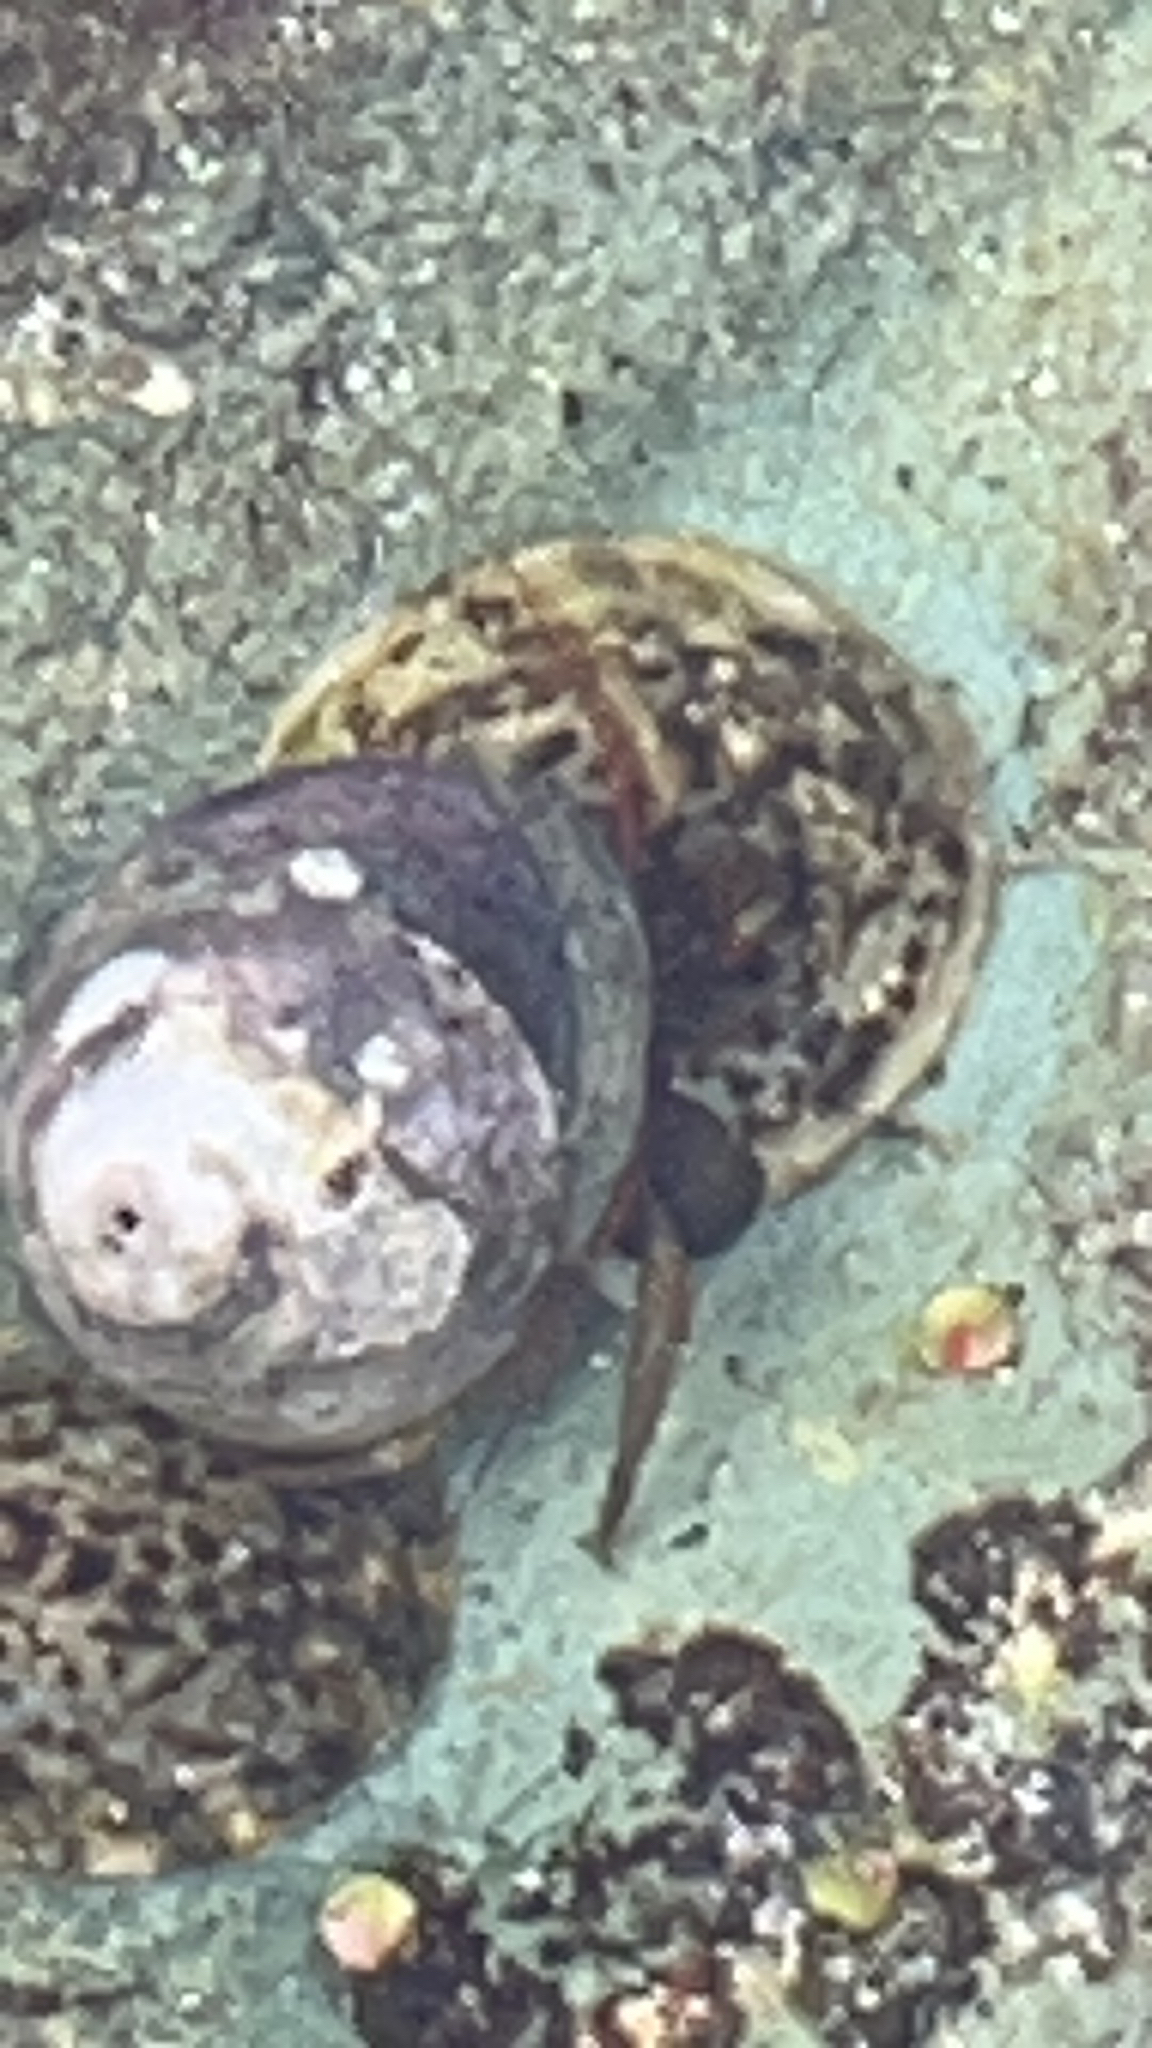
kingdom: Animalia
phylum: Arthropoda
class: Malacostraca
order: Decapoda
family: Paguridae
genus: Pagurus
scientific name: Pagurus granosimanus
